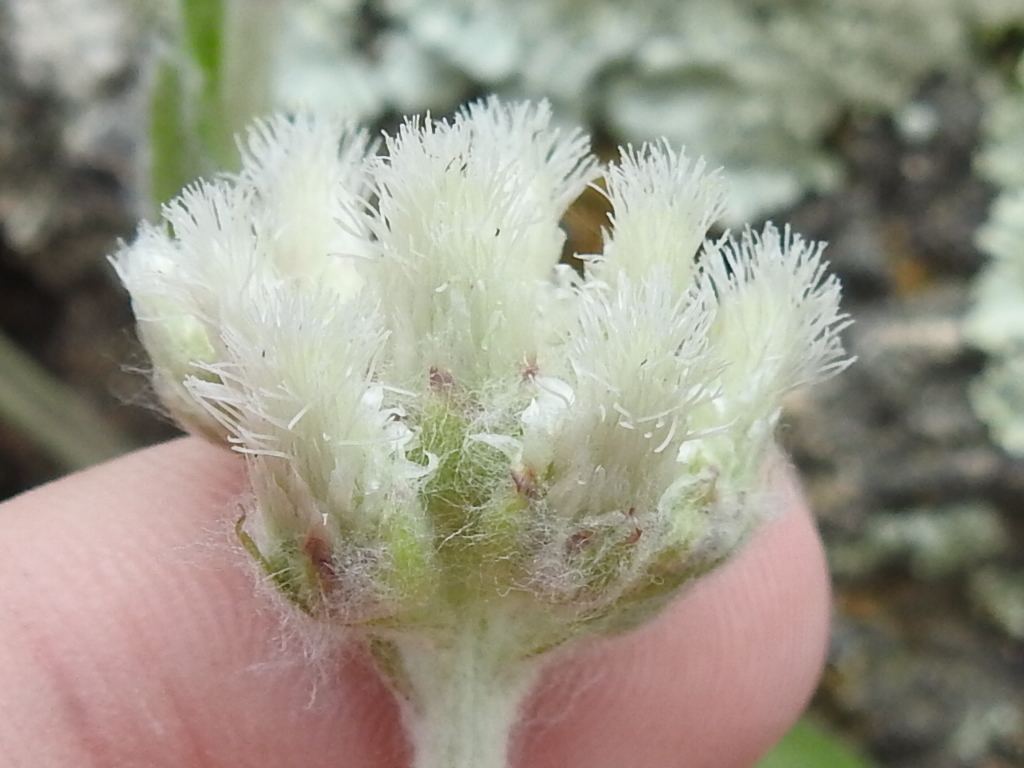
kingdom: Plantae
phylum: Tracheophyta
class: Magnoliopsida
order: Asterales
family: Asteraceae
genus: Antennaria
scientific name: Antennaria parlinii
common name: Parlin's pussytoes
